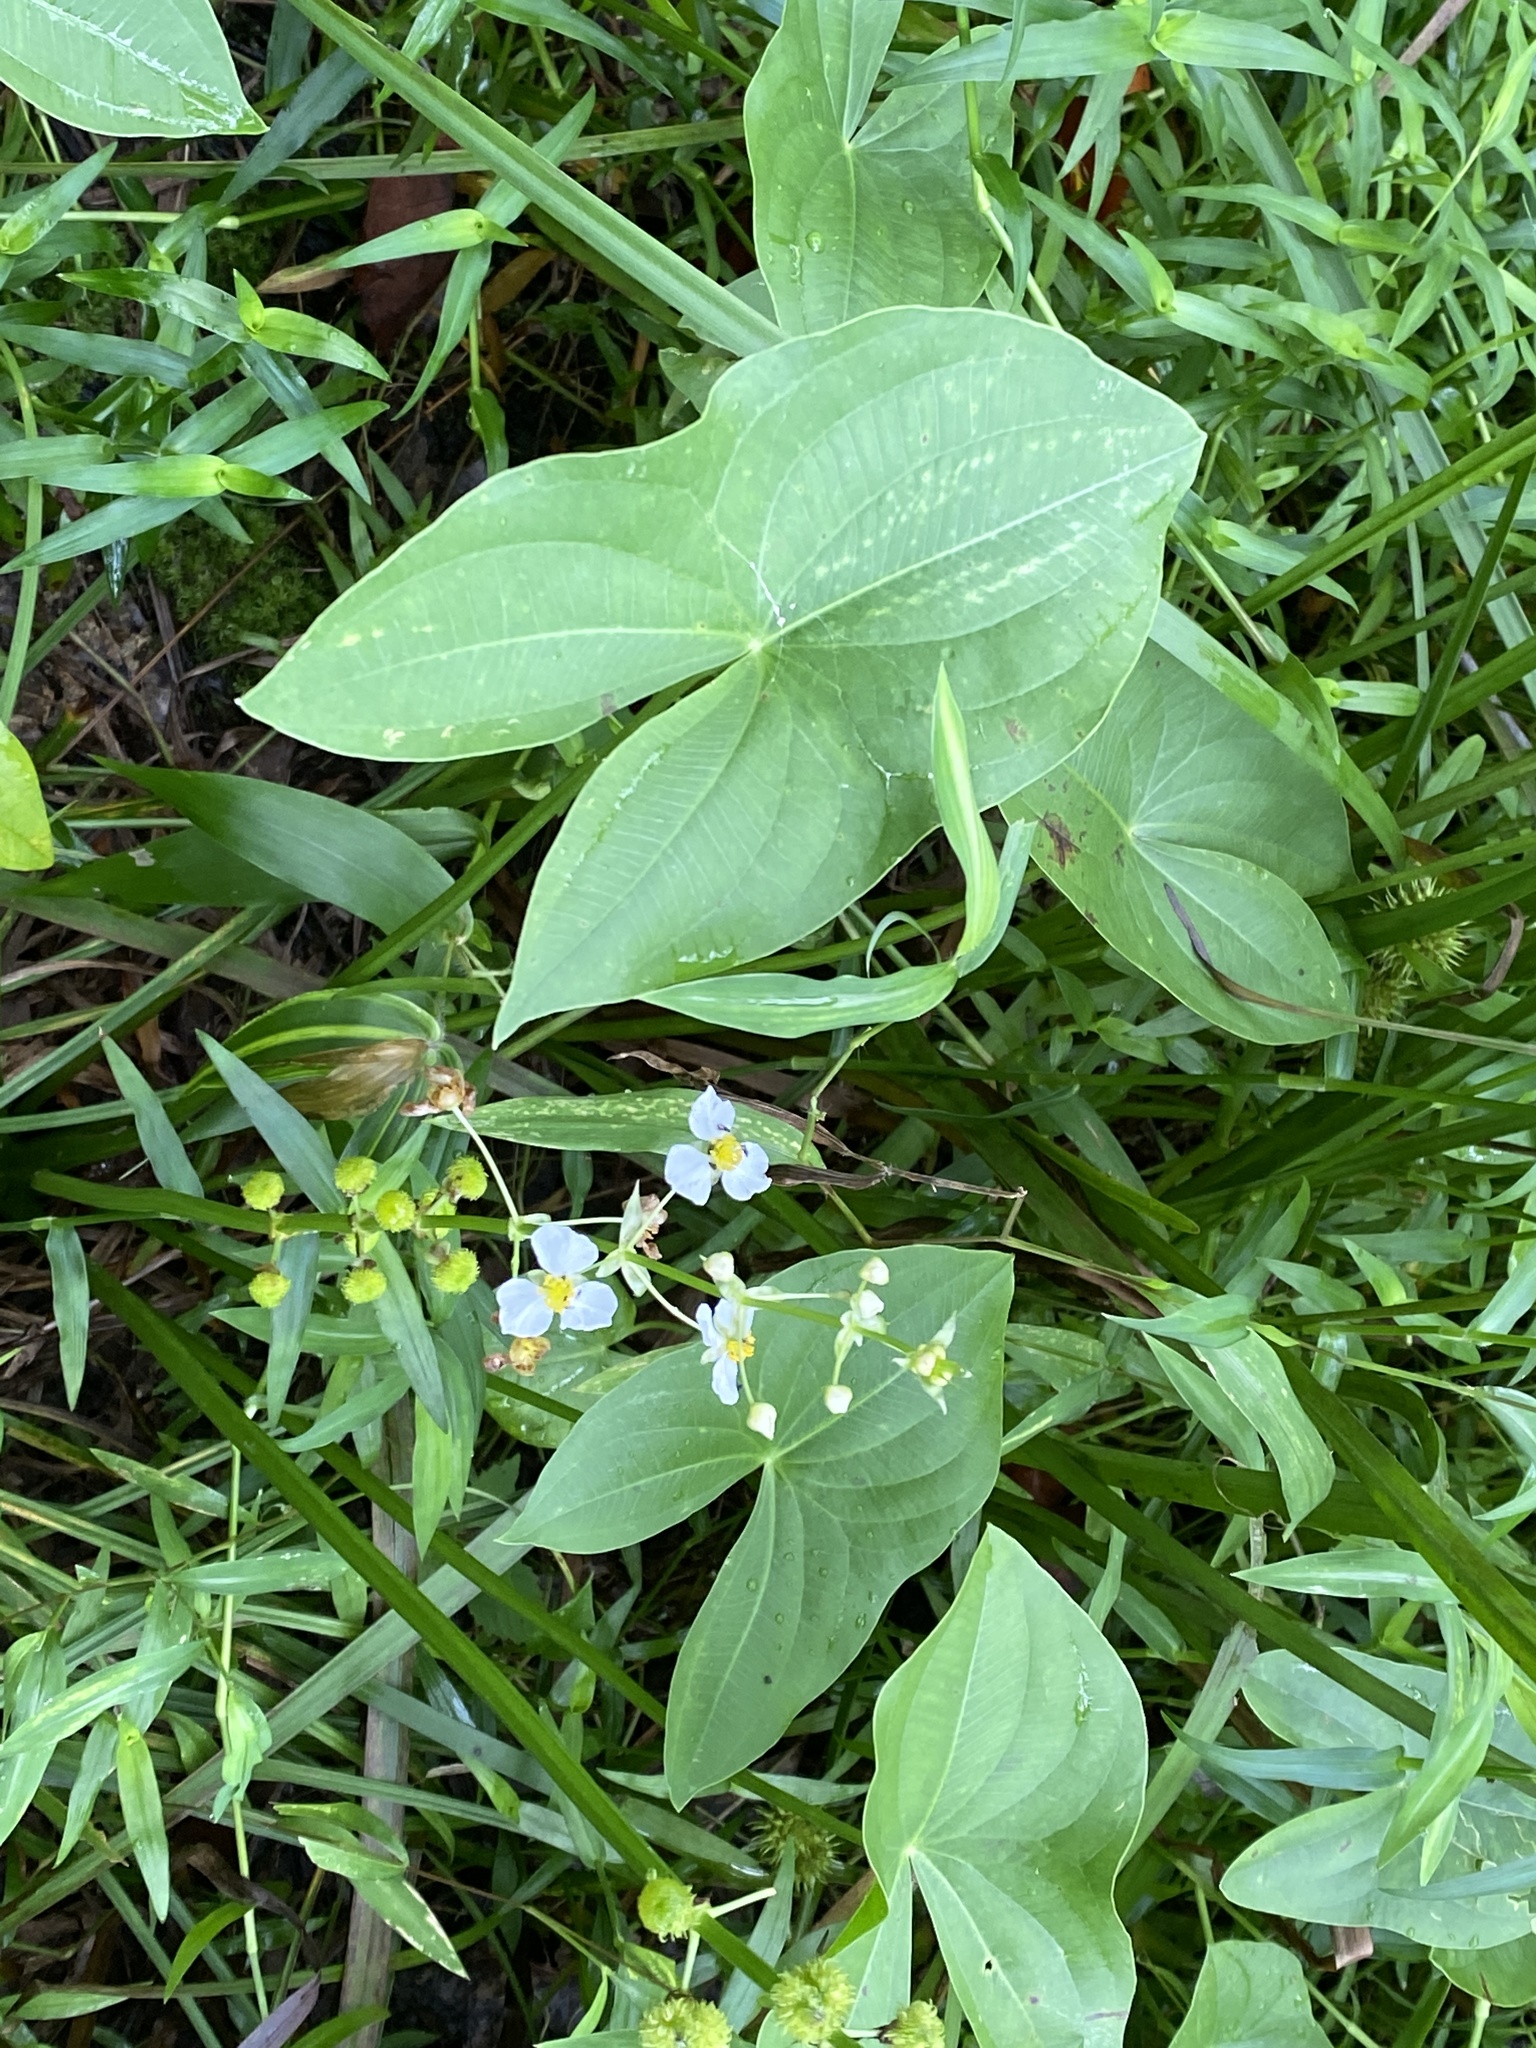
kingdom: Plantae
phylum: Tracheophyta
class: Liliopsida
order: Alismatales
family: Alismataceae
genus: Sagittaria
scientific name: Sagittaria australis
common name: Appalachian arrowhead
